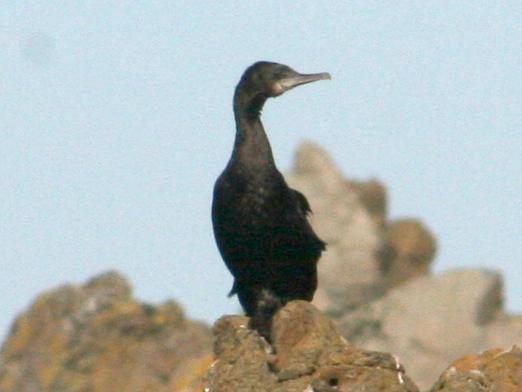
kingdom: Animalia
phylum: Chordata
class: Aves
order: Suliformes
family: Phalacrocoracidae
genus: Phalacrocorax
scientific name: Phalacrocorax sulcirostris
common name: Little black cormorant
